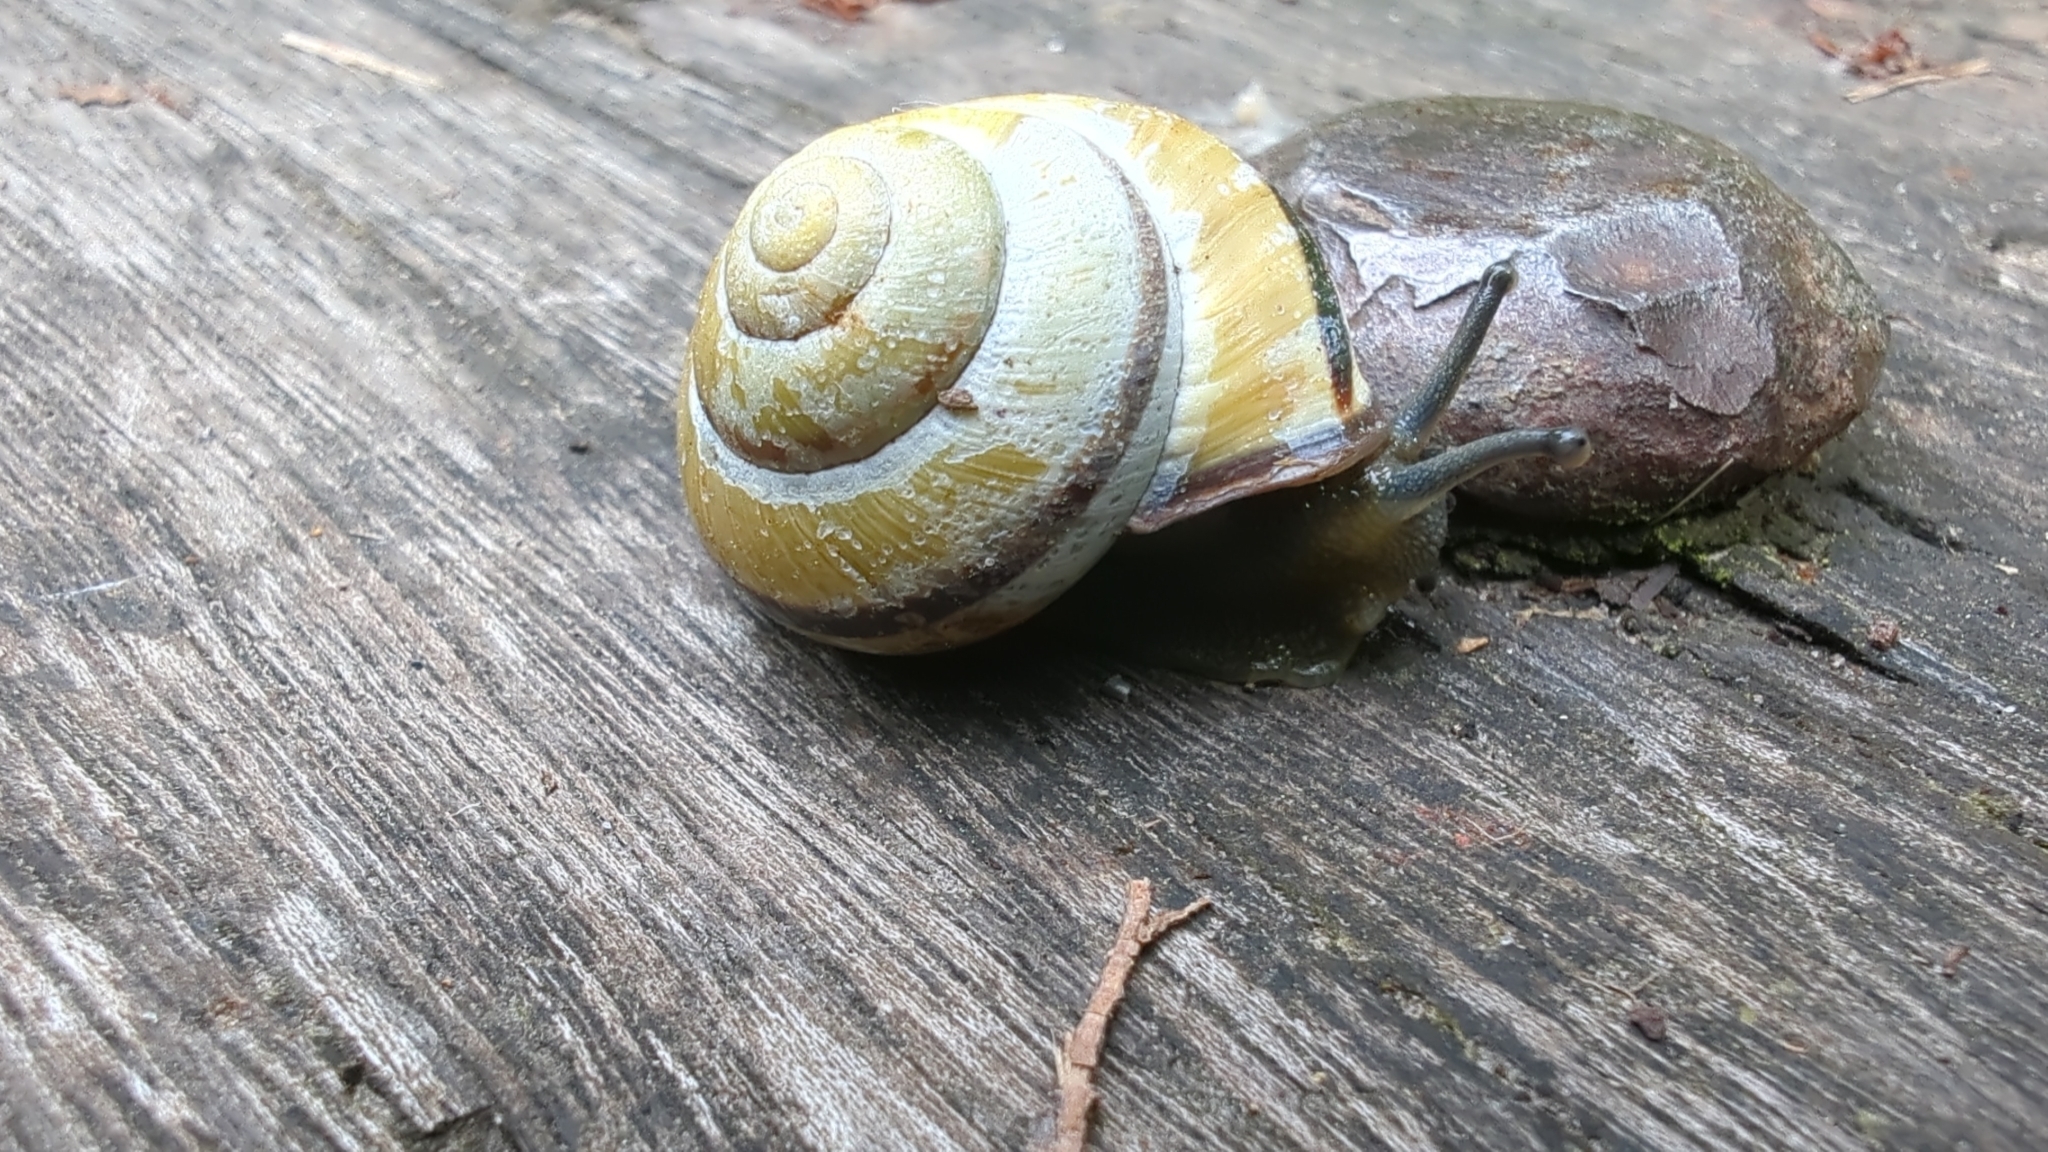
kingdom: Animalia
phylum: Mollusca
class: Gastropoda
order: Stylommatophora
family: Helicidae
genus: Cepaea
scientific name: Cepaea nemoralis
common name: Grovesnail
